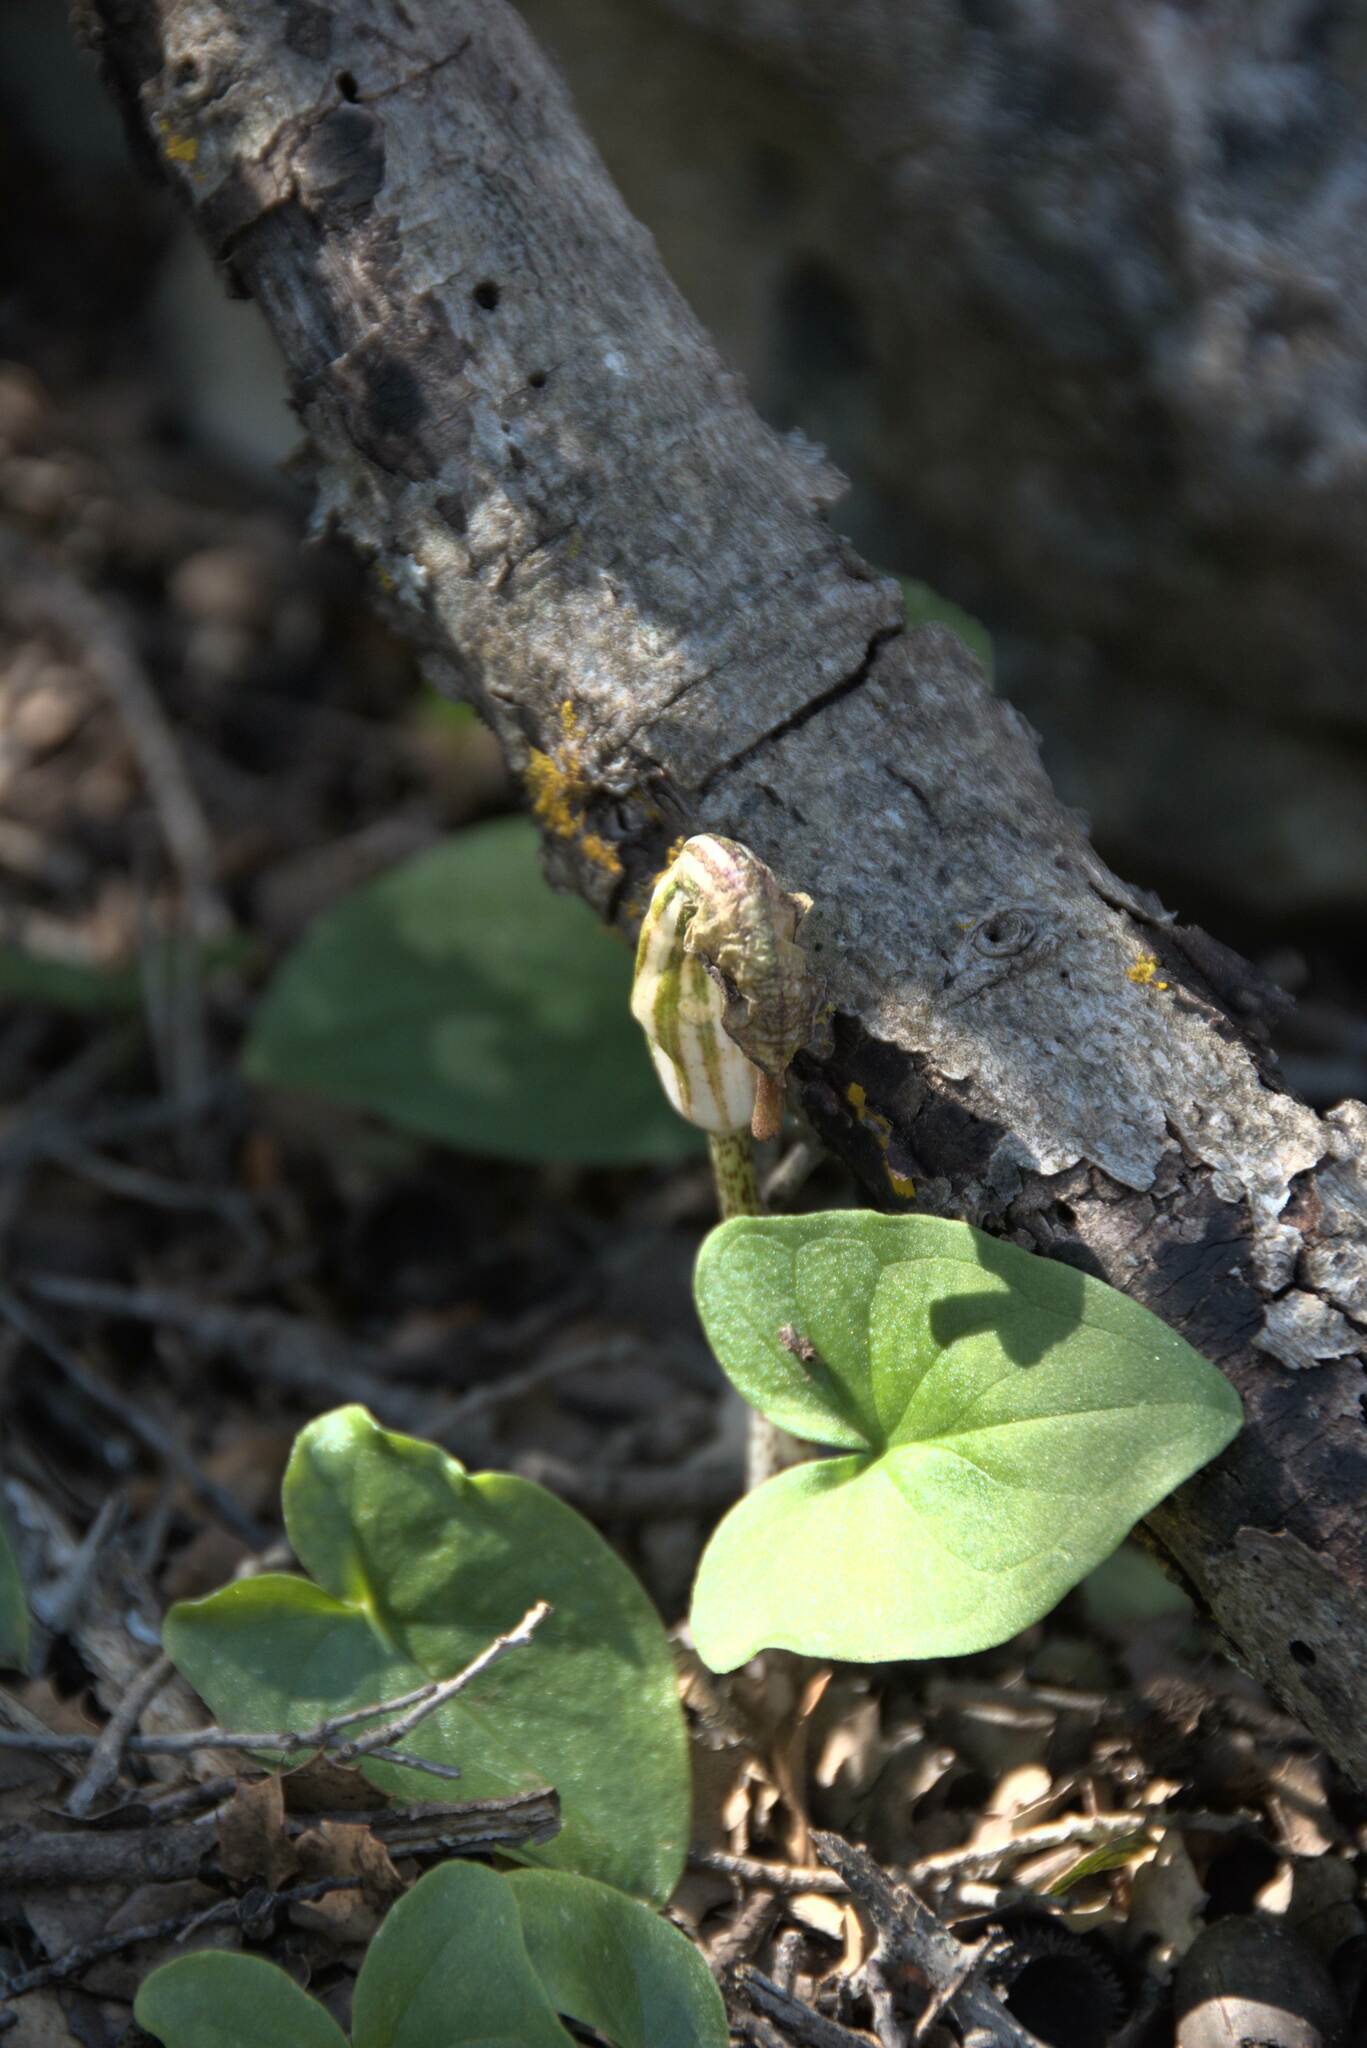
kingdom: Plantae
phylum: Tracheophyta
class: Liliopsida
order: Alismatales
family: Araceae
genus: Arisarum
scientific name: Arisarum vulgare
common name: Common arisarum
